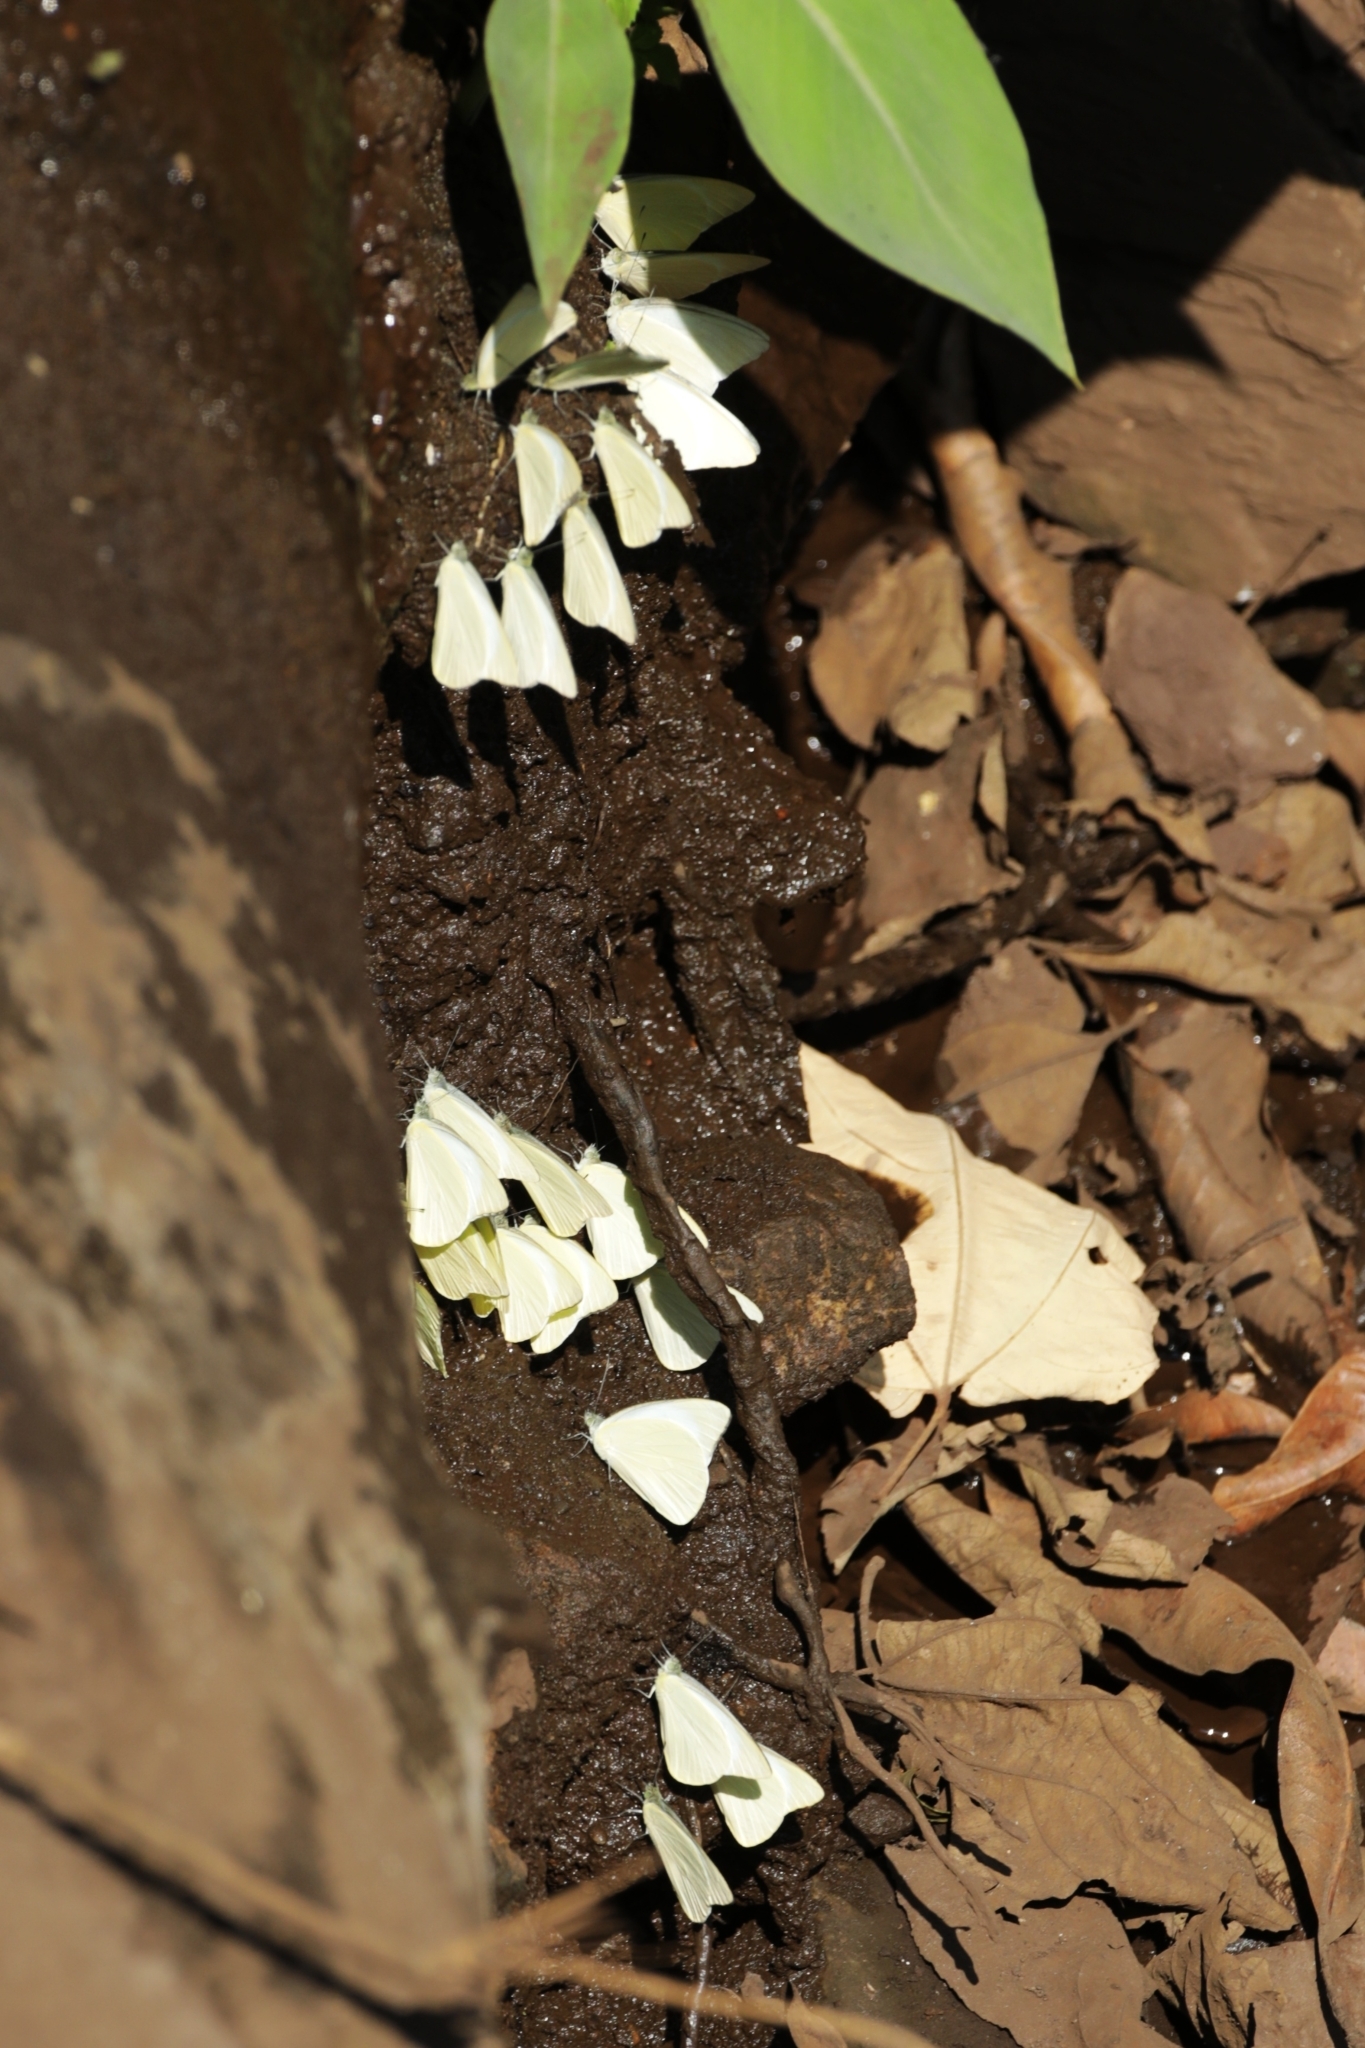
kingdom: Animalia
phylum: Arthropoda
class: Insecta
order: Lepidoptera
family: Pieridae
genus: Appias
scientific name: Appias albina
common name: Common albatross
